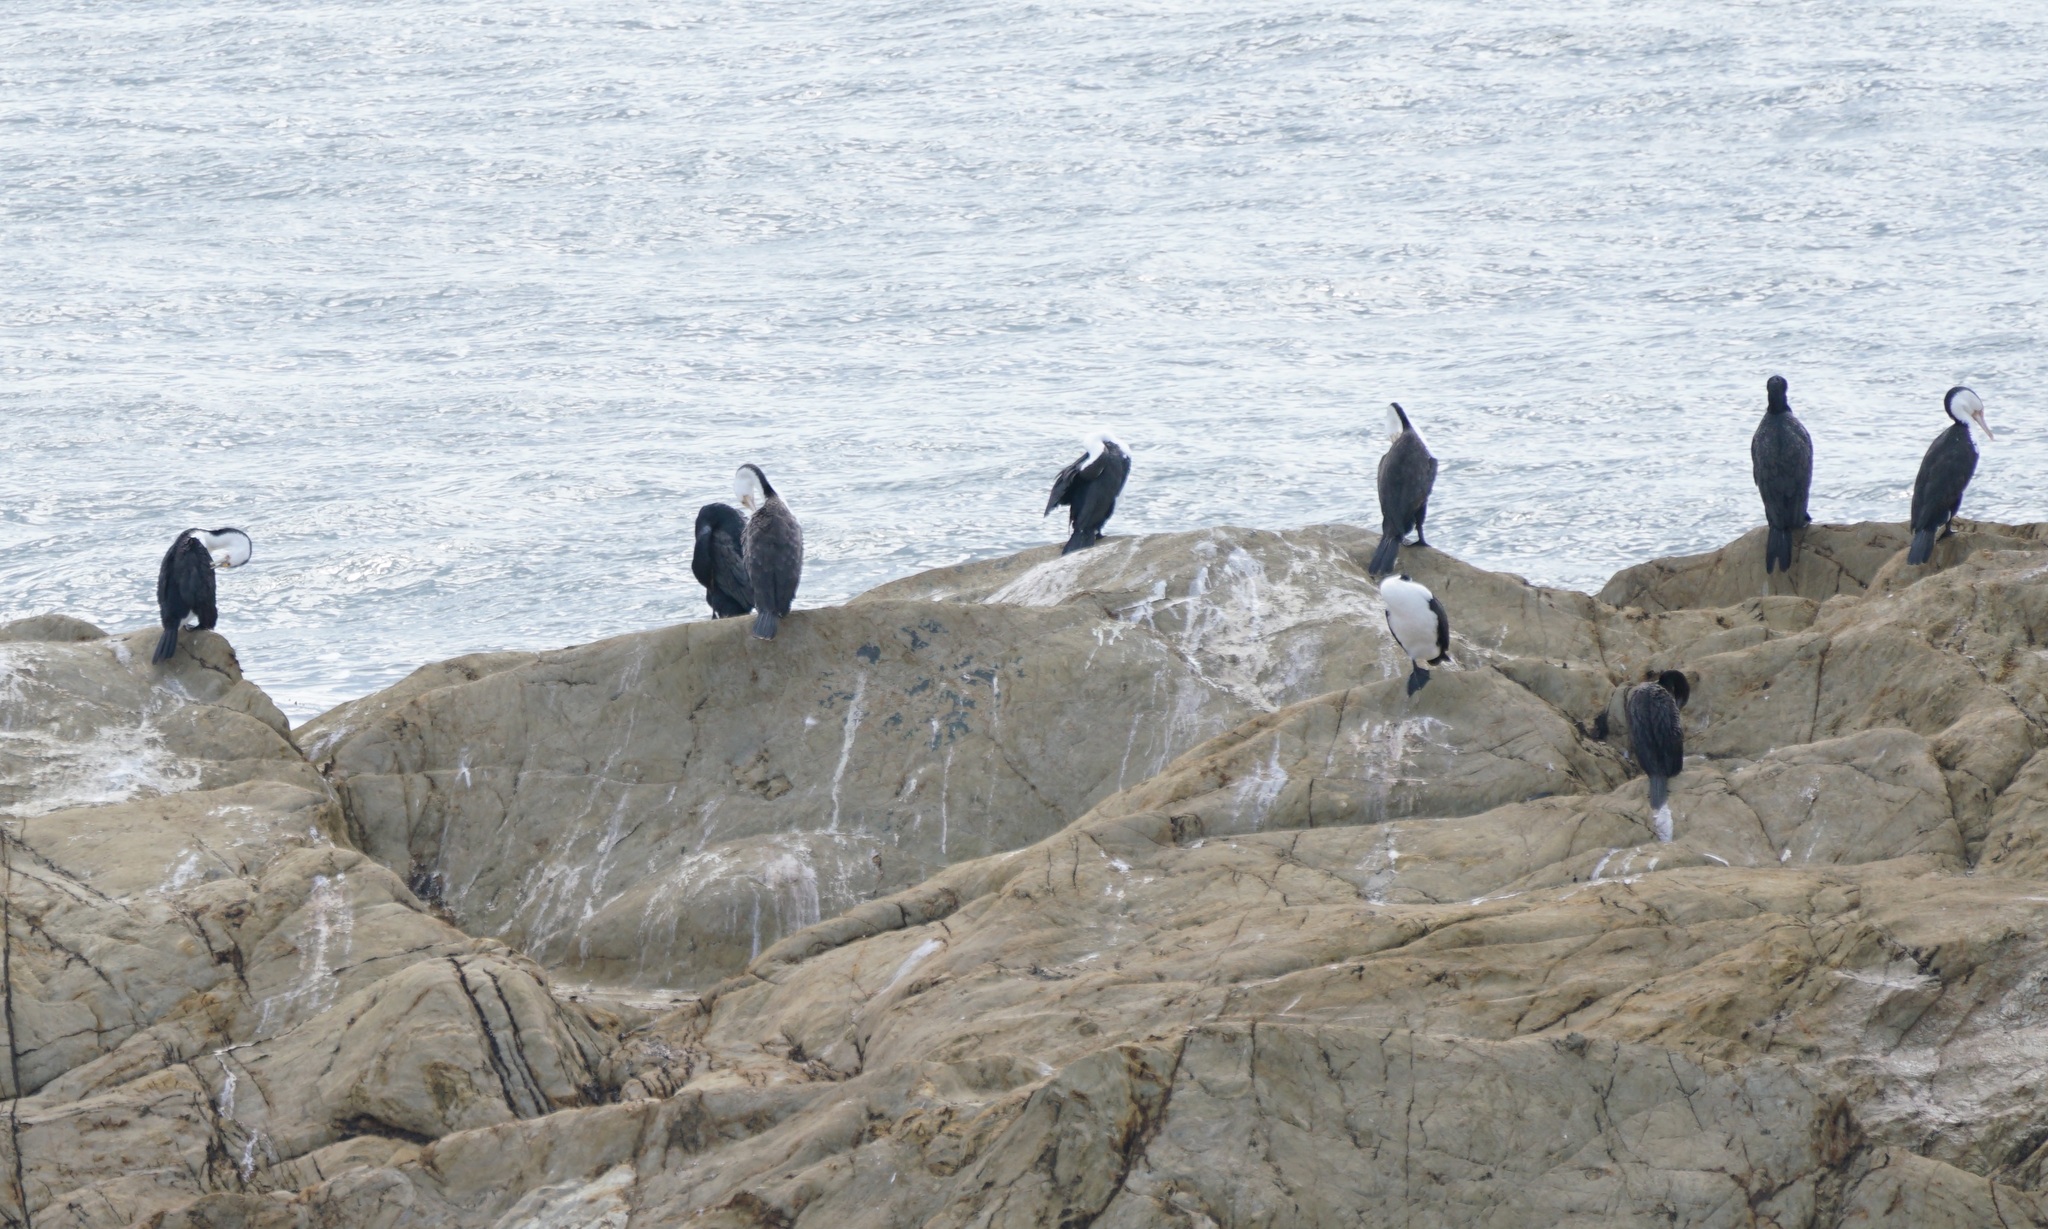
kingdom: Animalia
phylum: Chordata
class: Aves
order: Suliformes
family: Phalacrocoracidae
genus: Phalacrocorax
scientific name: Phalacrocorax varius
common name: Pied cormorant
